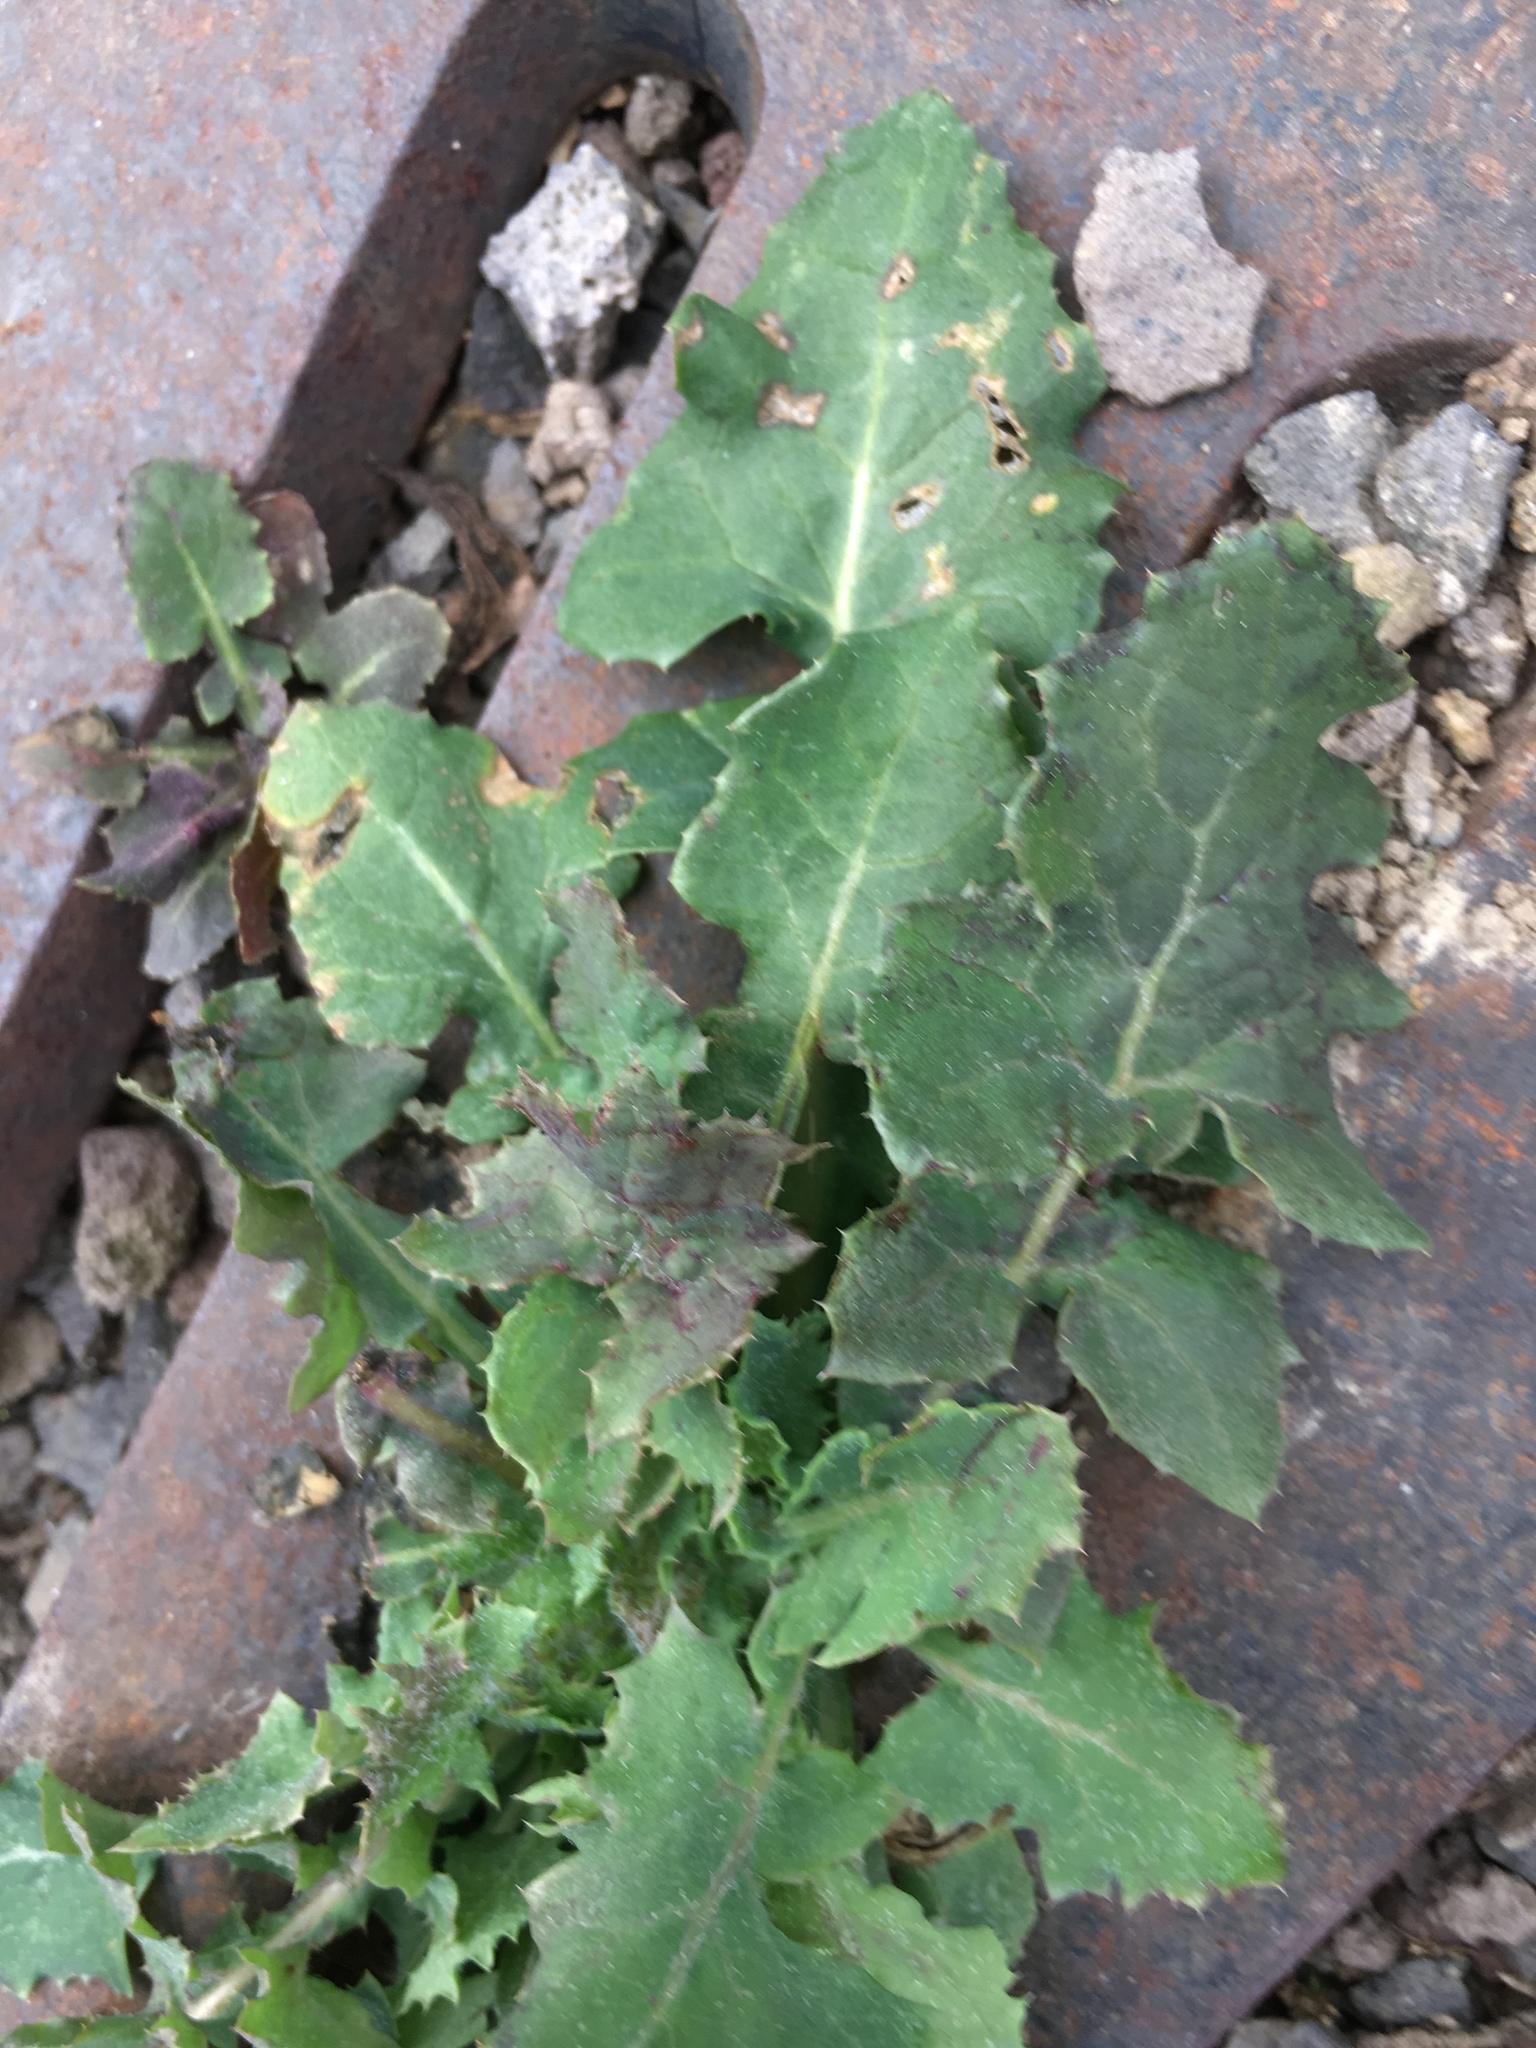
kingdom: Plantae
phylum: Tracheophyta
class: Magnoliopsida
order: Asterales
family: Asteraceae
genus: Sonchus
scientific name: Sonchus oleraceus
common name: Common sowthistle
